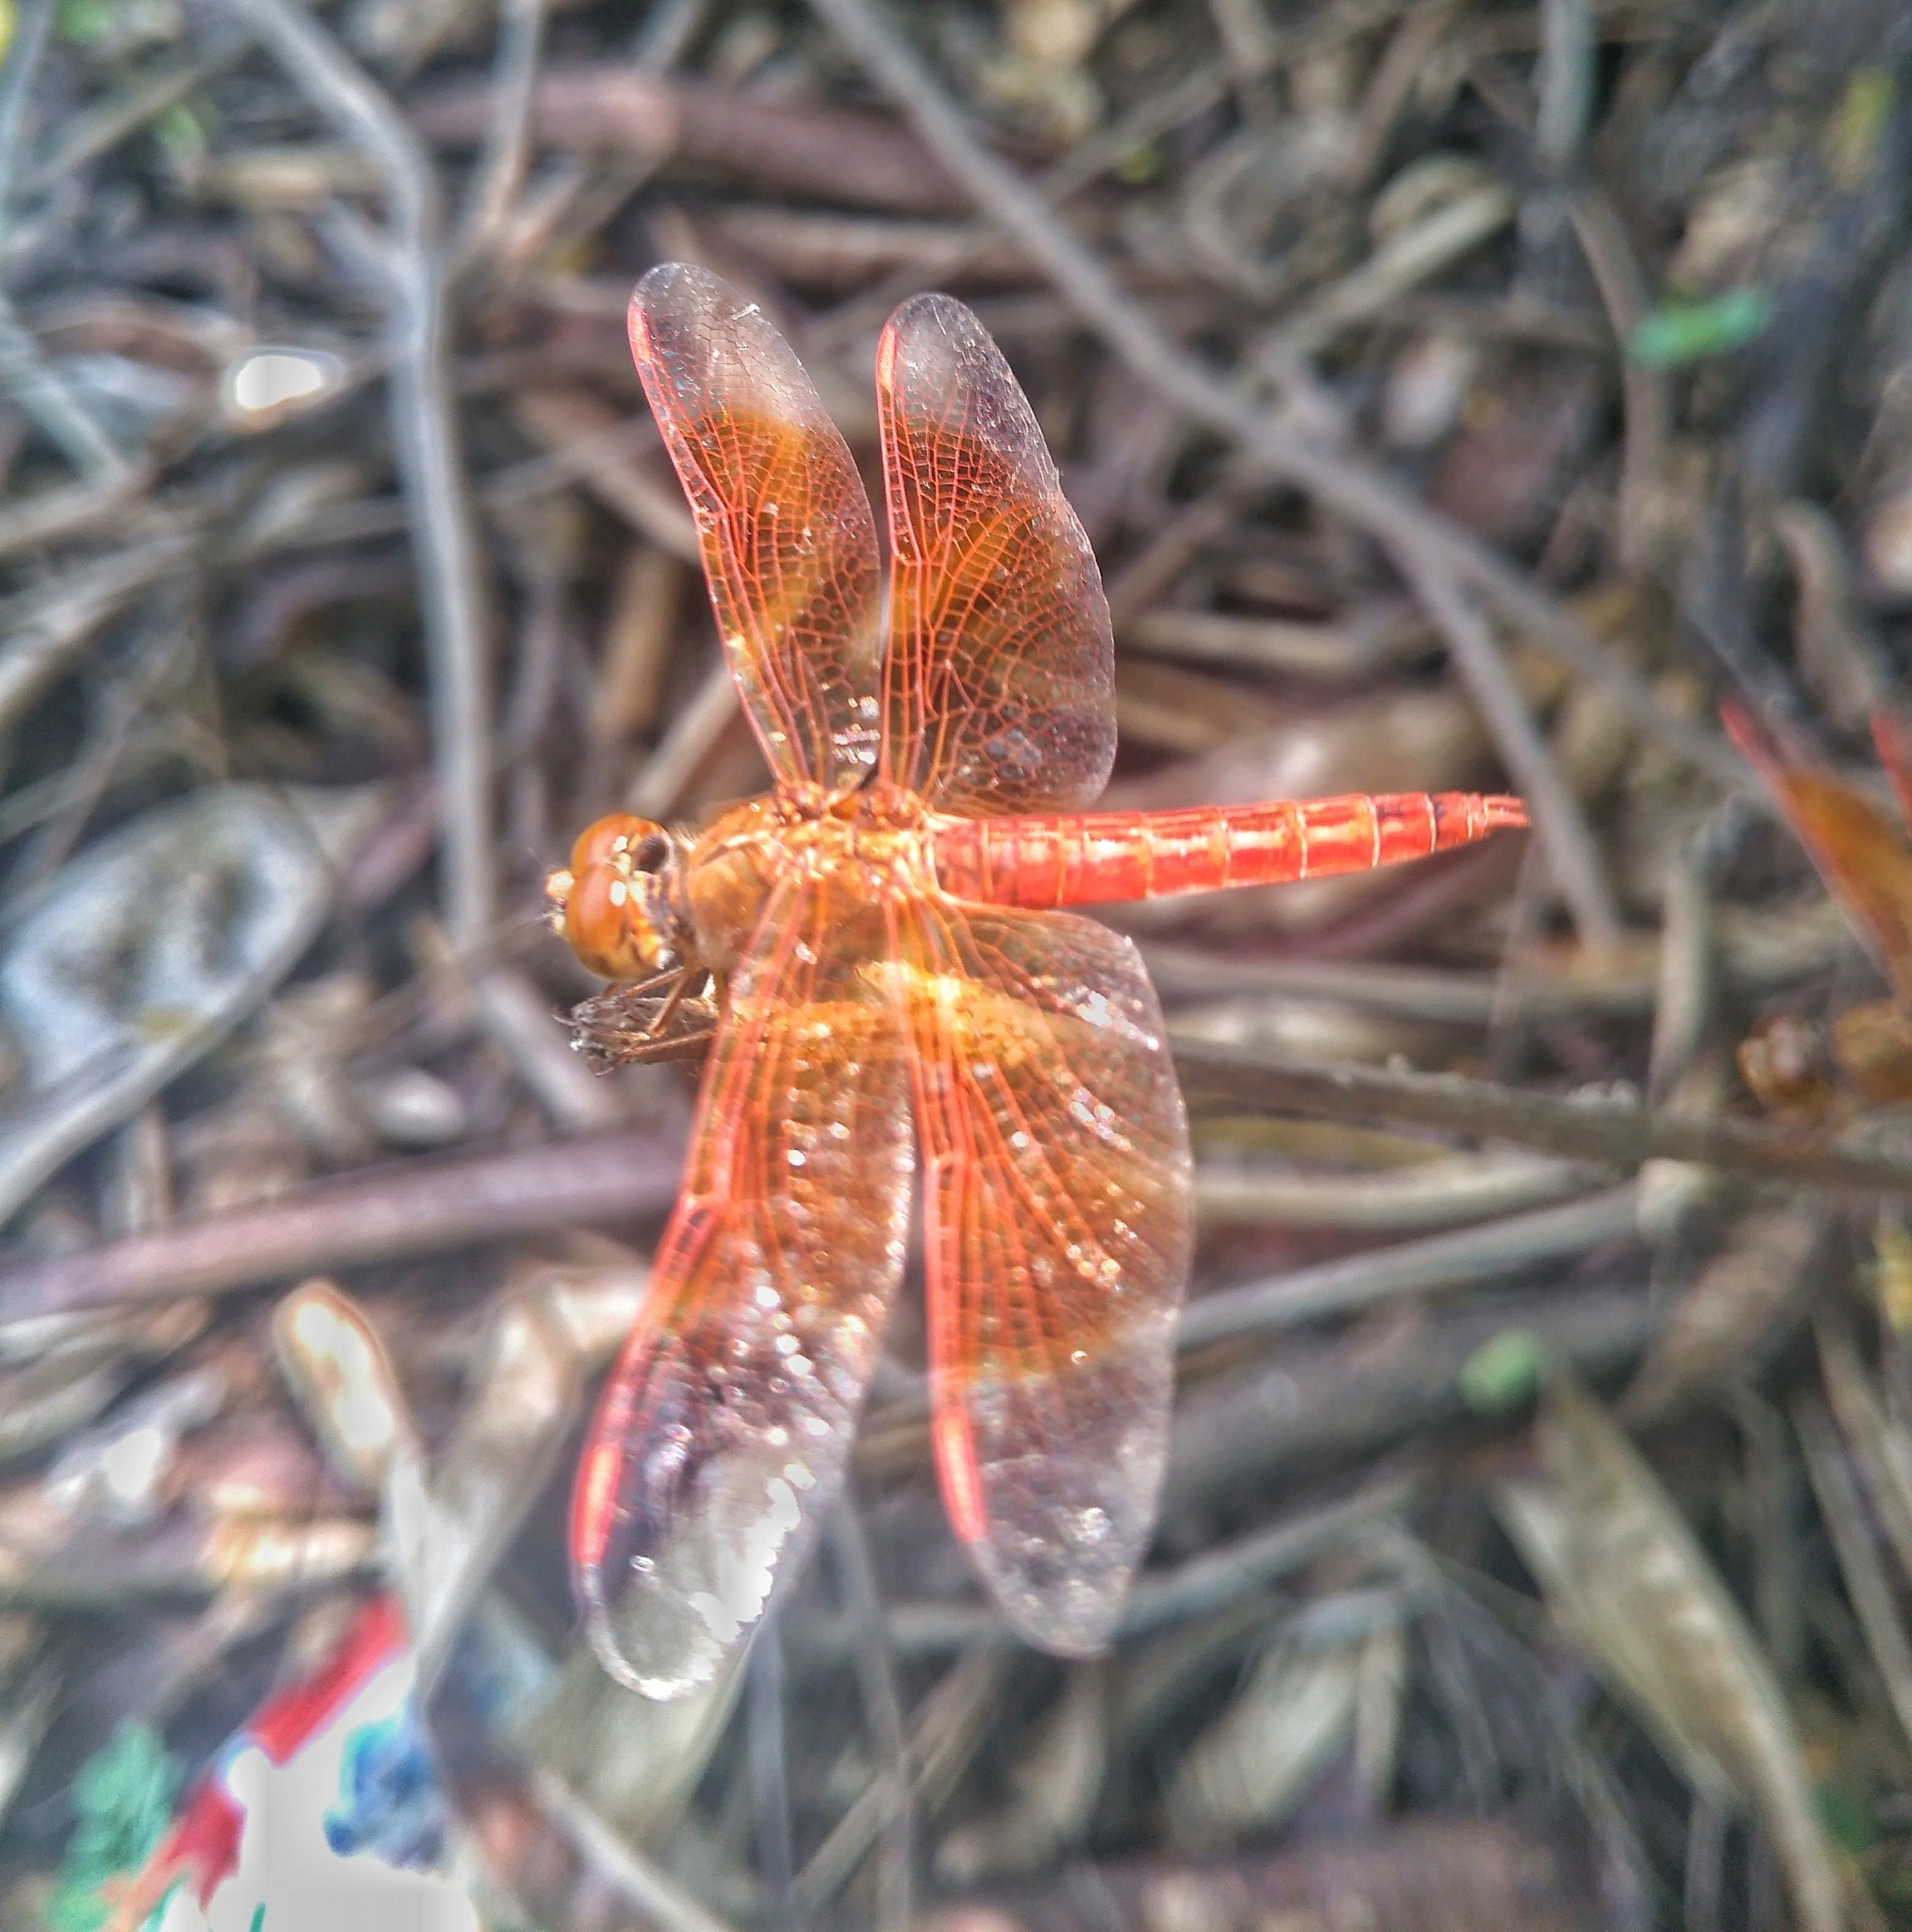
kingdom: Animalia
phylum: Arthropoda
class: Insecta
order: Odonata
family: Libellulidae
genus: Brachythemis
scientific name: Brachythemis contaminata
